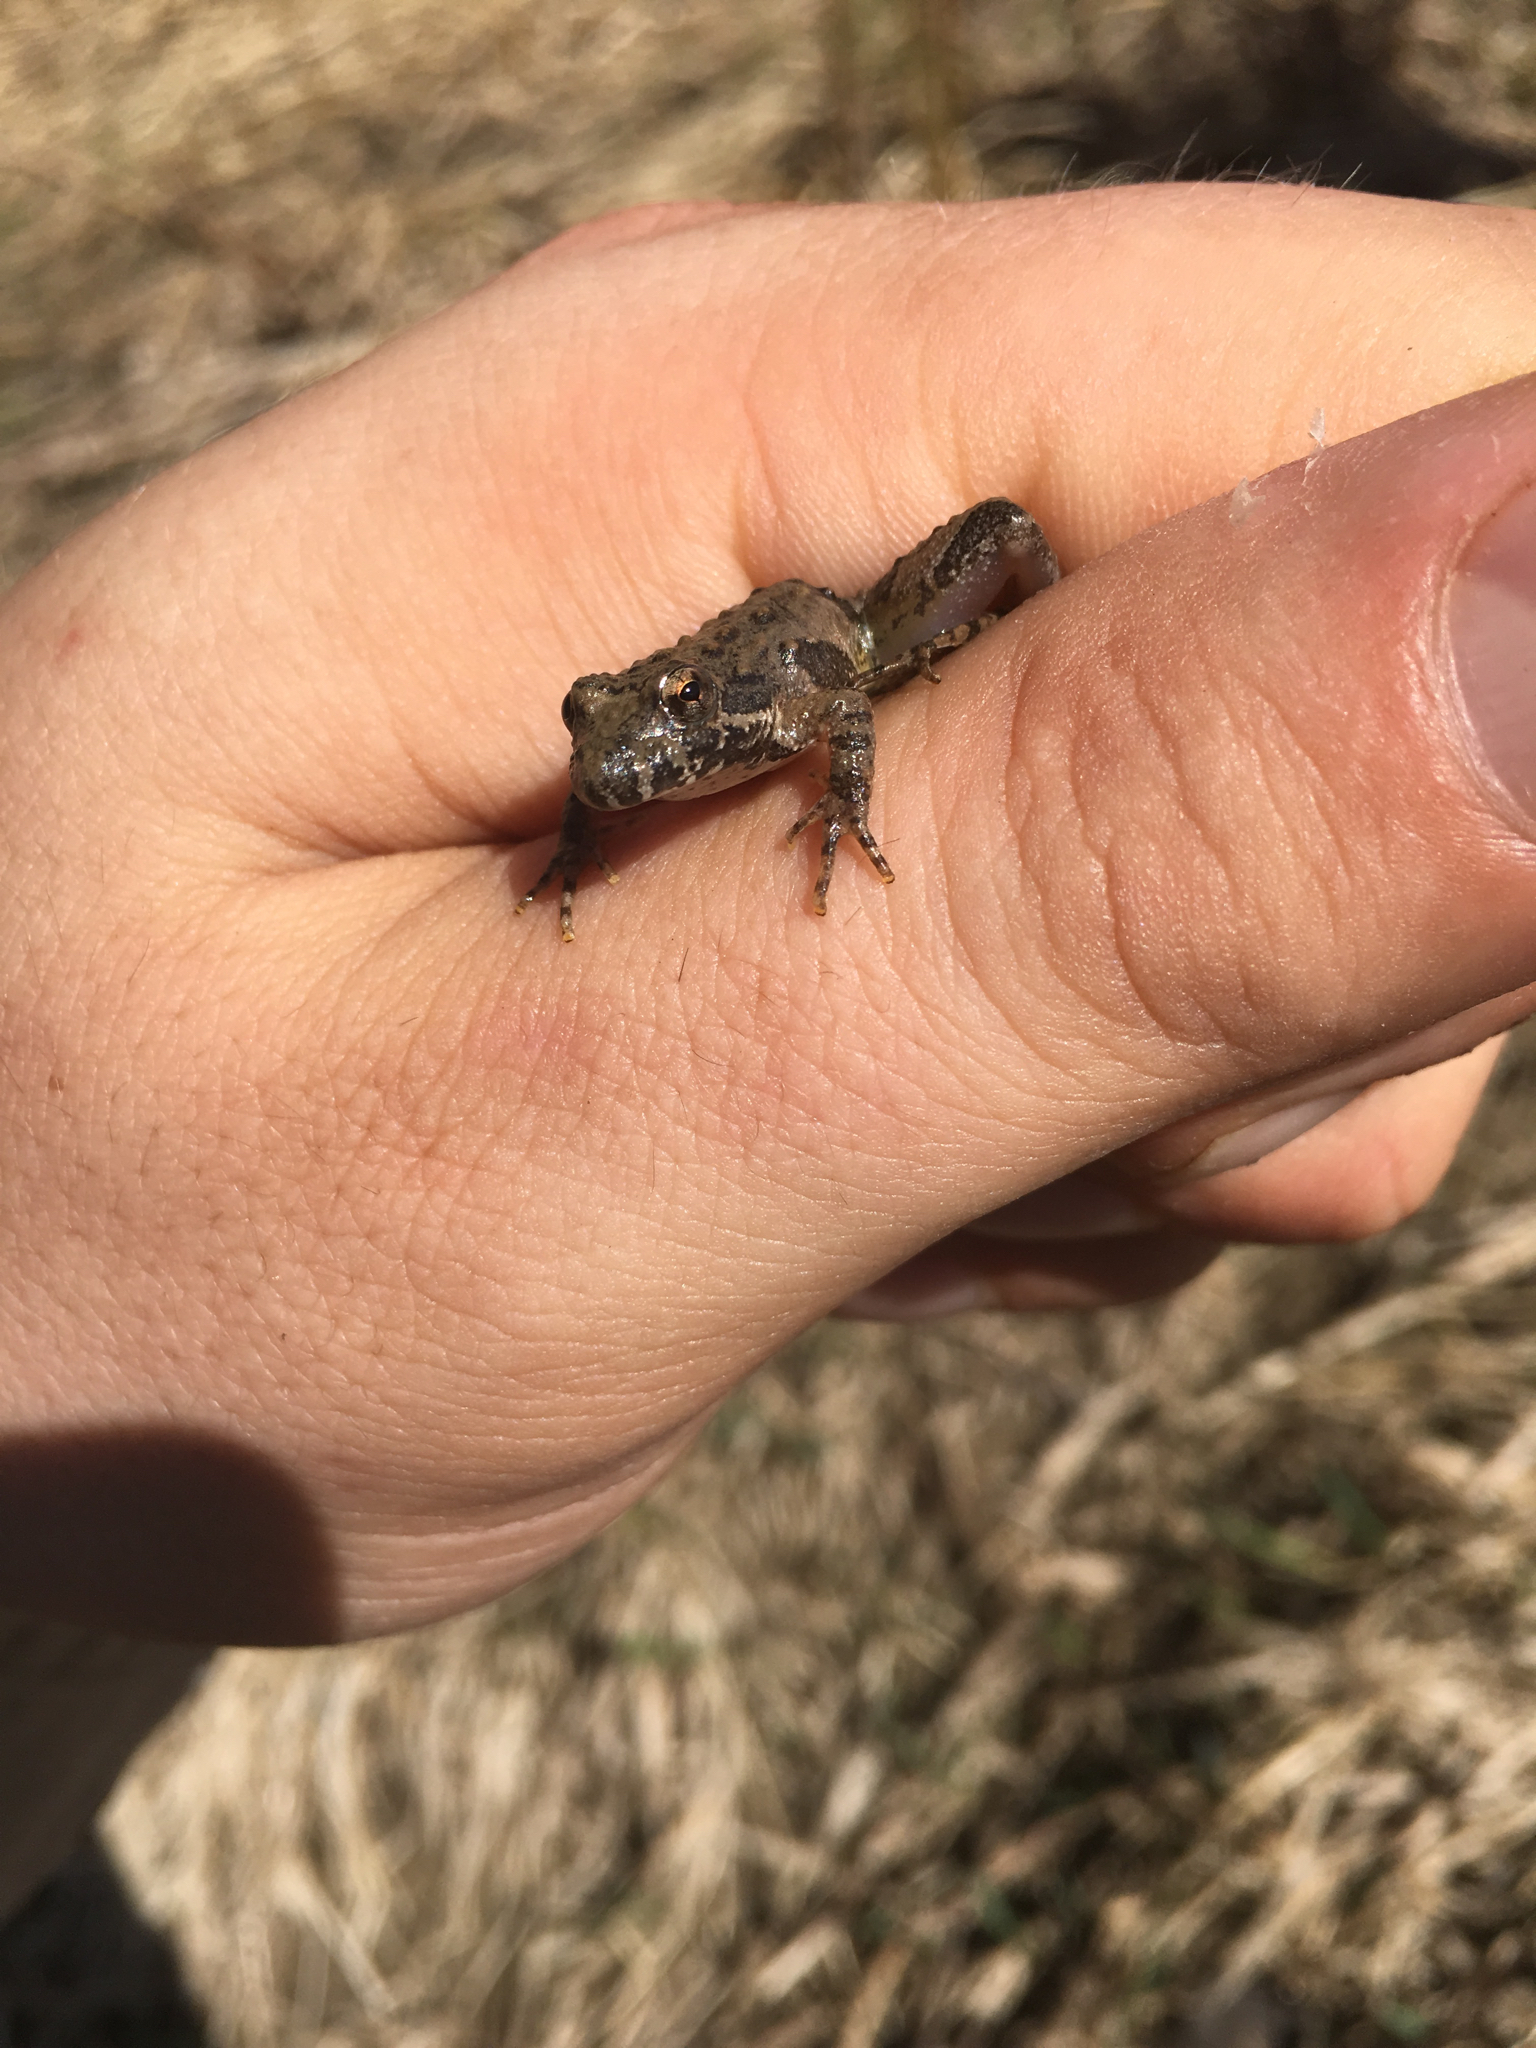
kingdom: Animalia
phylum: Chordata
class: Amphibia
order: Anura
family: Hylidae
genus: Acris
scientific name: Acris blanchardi
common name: Blanchard's cricket frog
